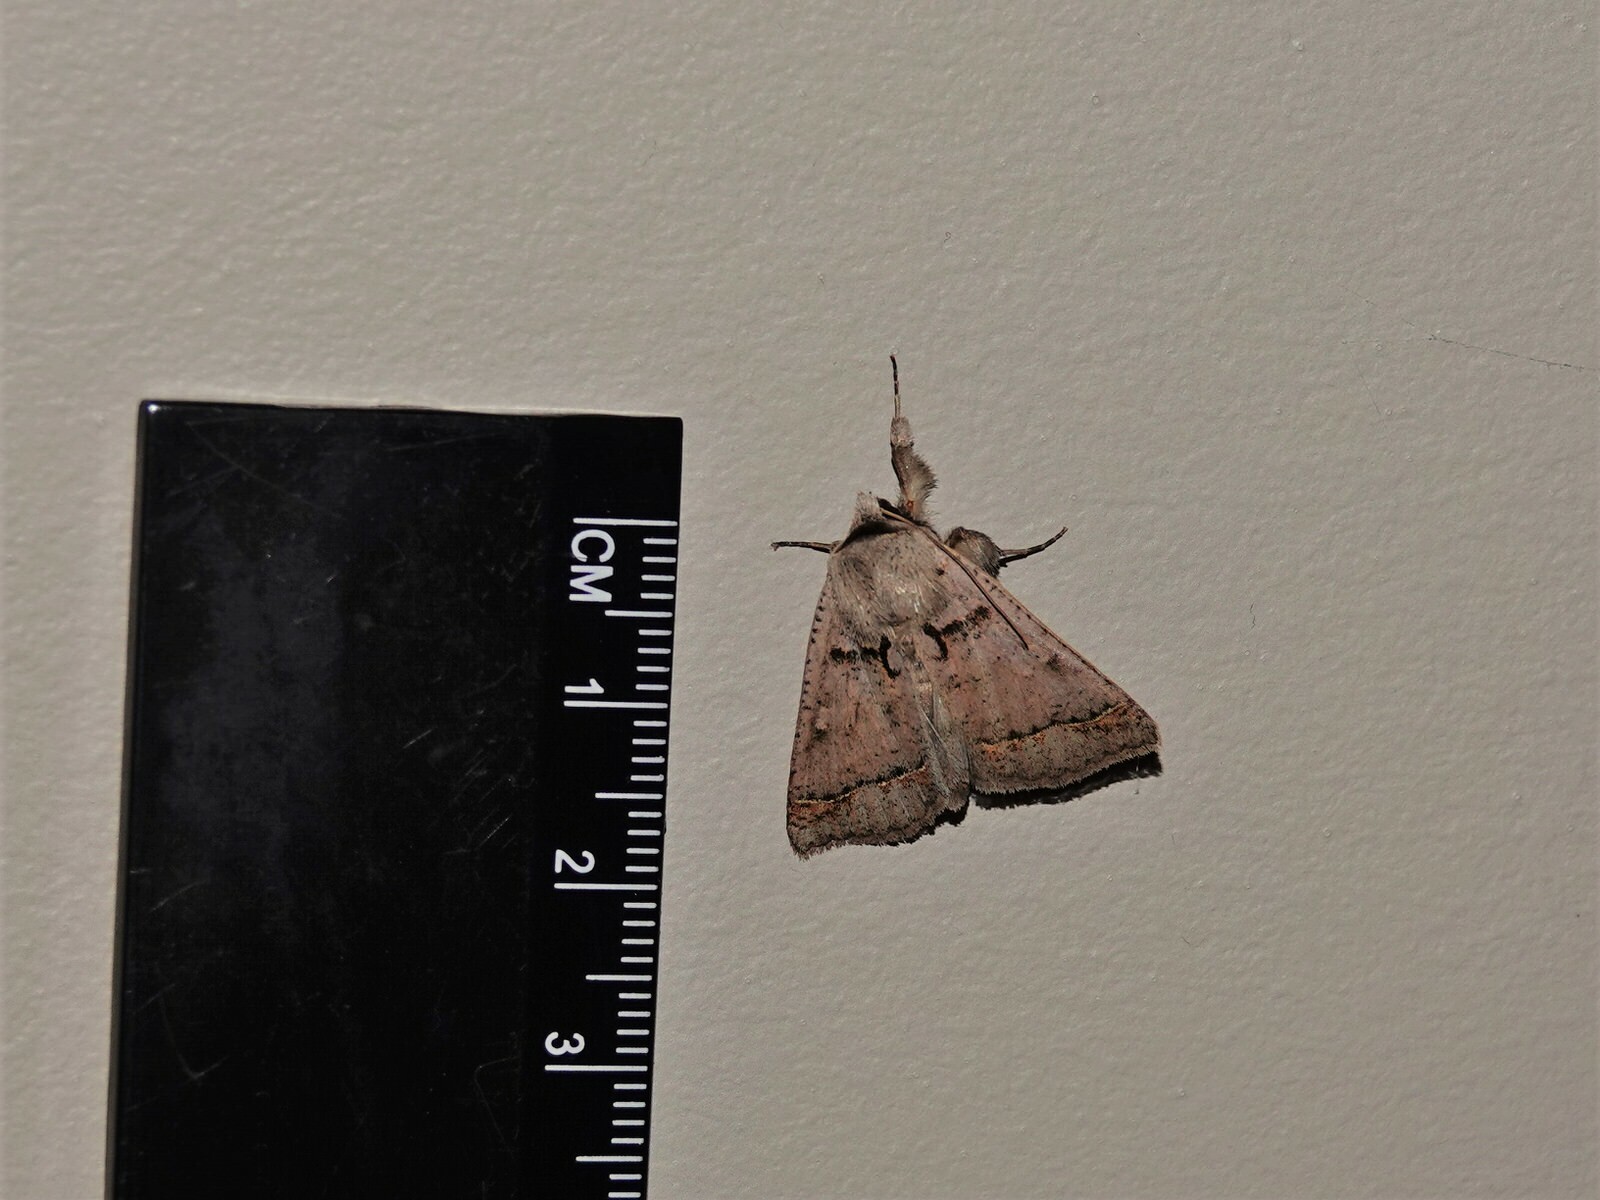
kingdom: Animalia
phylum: Arthropoda
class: Insecta
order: Lepidoptera
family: Erebidae
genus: Pantydia
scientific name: Pantydia sparsa
